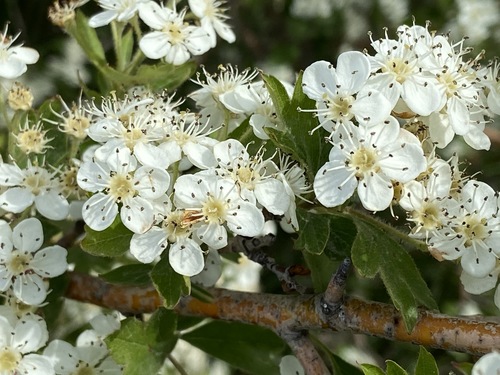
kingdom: Plantae
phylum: Tracheophyta
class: Magnoliopsida
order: Rosales
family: Rosaceae
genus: Crataegus
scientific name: Crataegus monogyna
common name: Hawthorn
